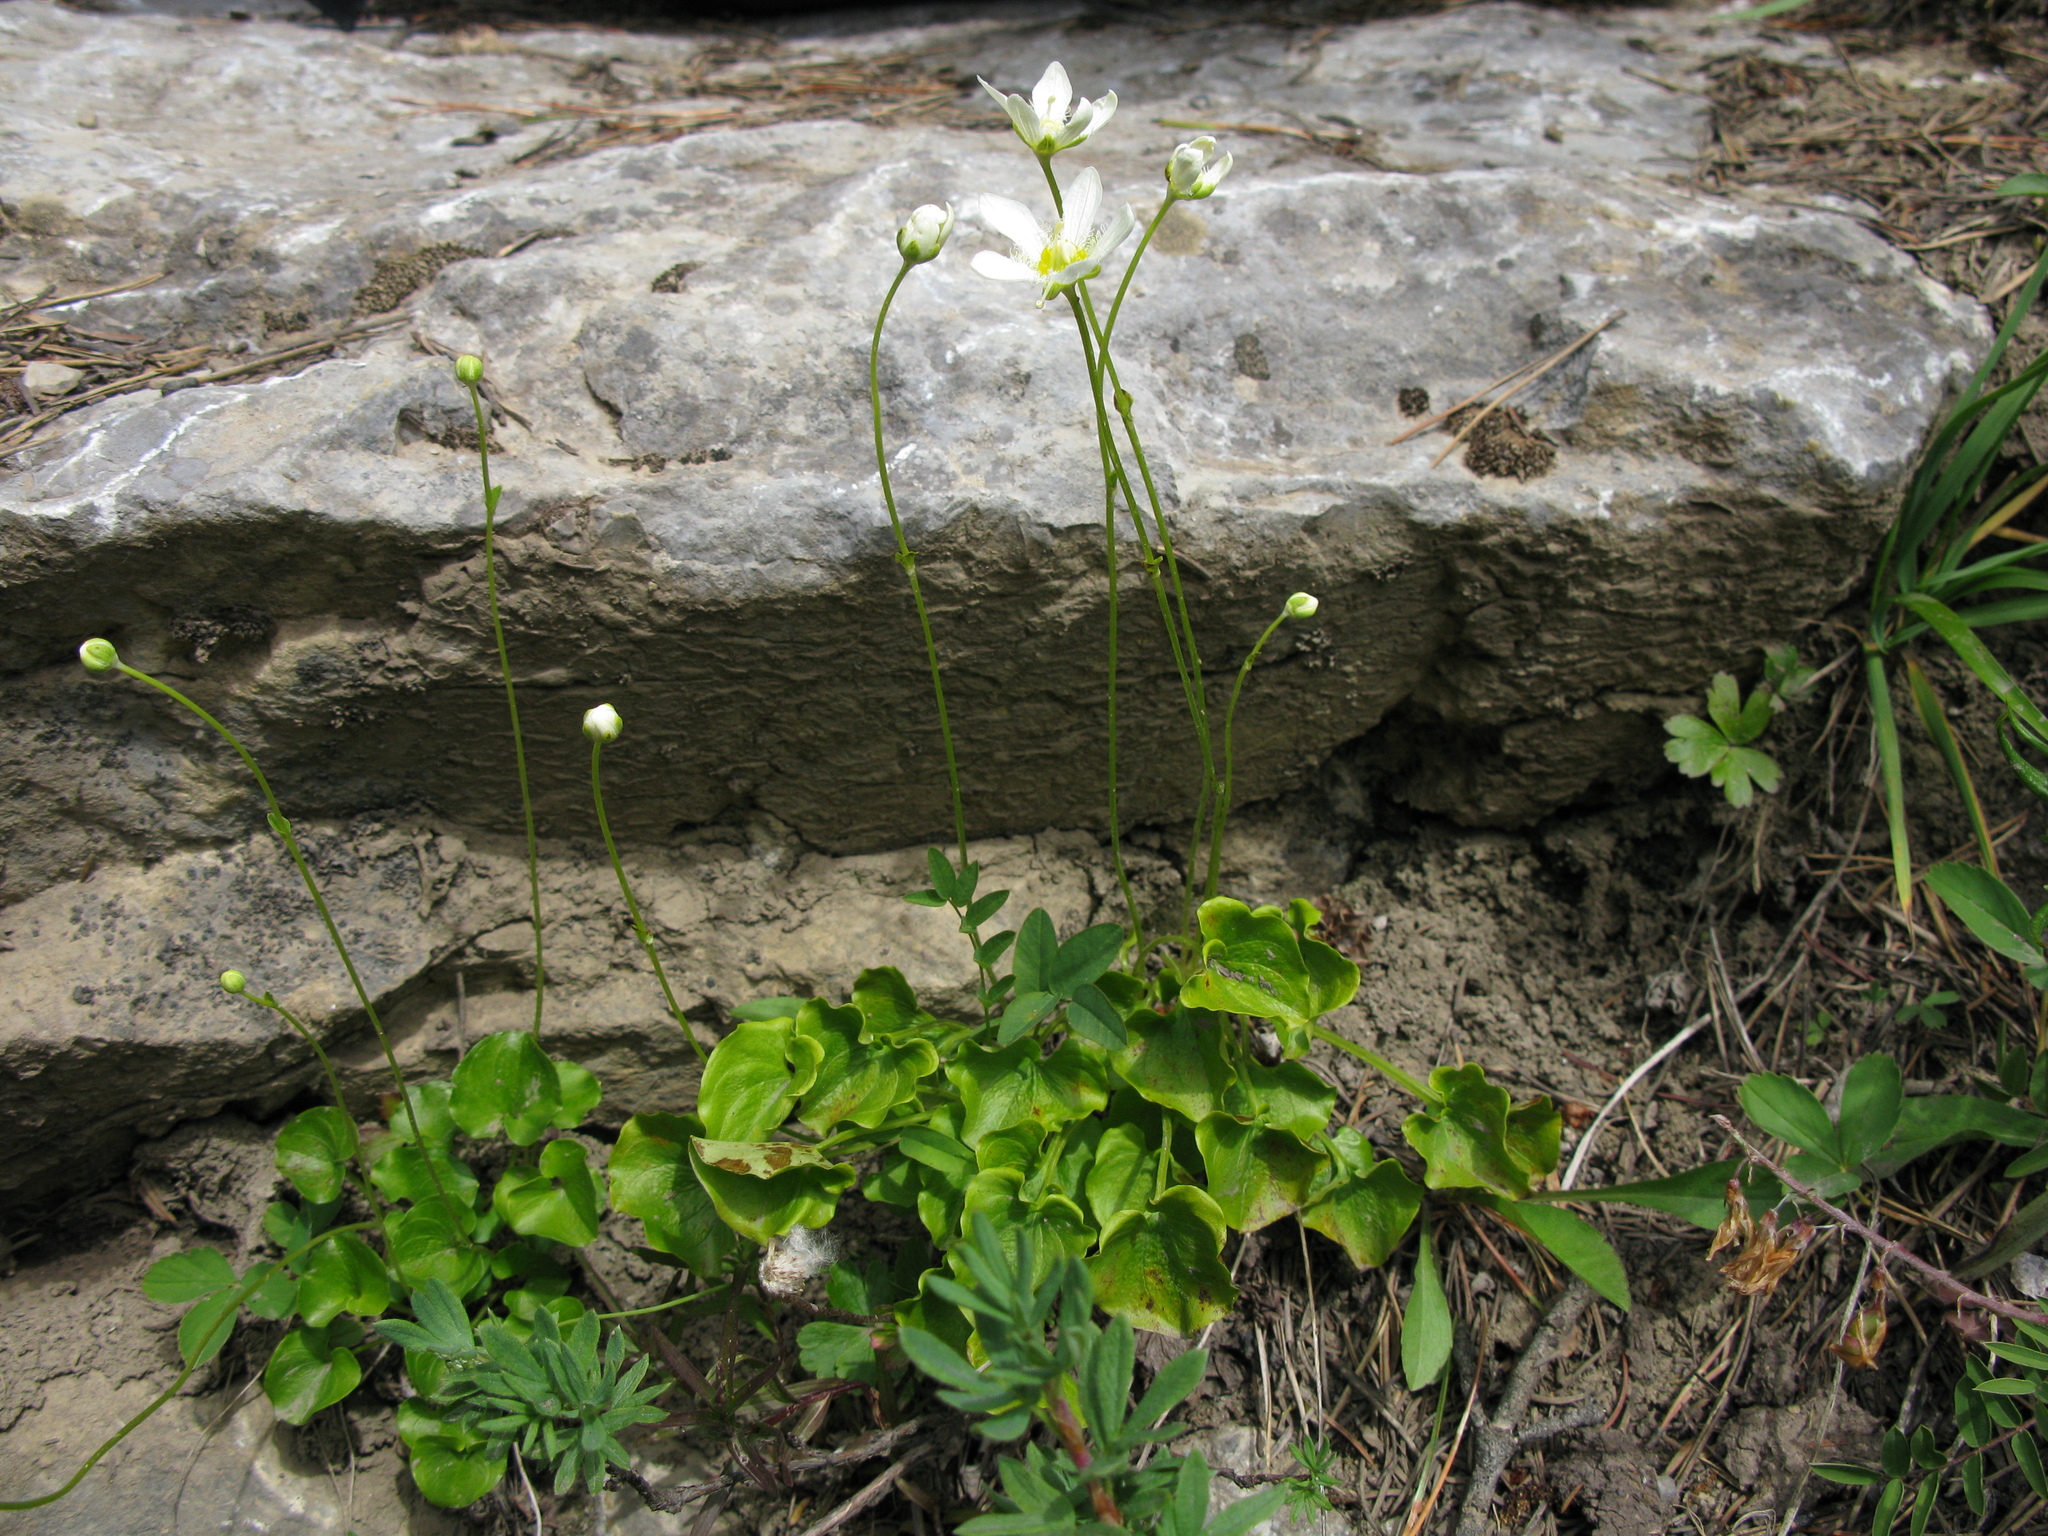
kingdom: Plantae
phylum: Tracheophyta
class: Magnoliopsida
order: Celastrales
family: Parnassiaceae
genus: Parnassia
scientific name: Parnassia fimbriata
